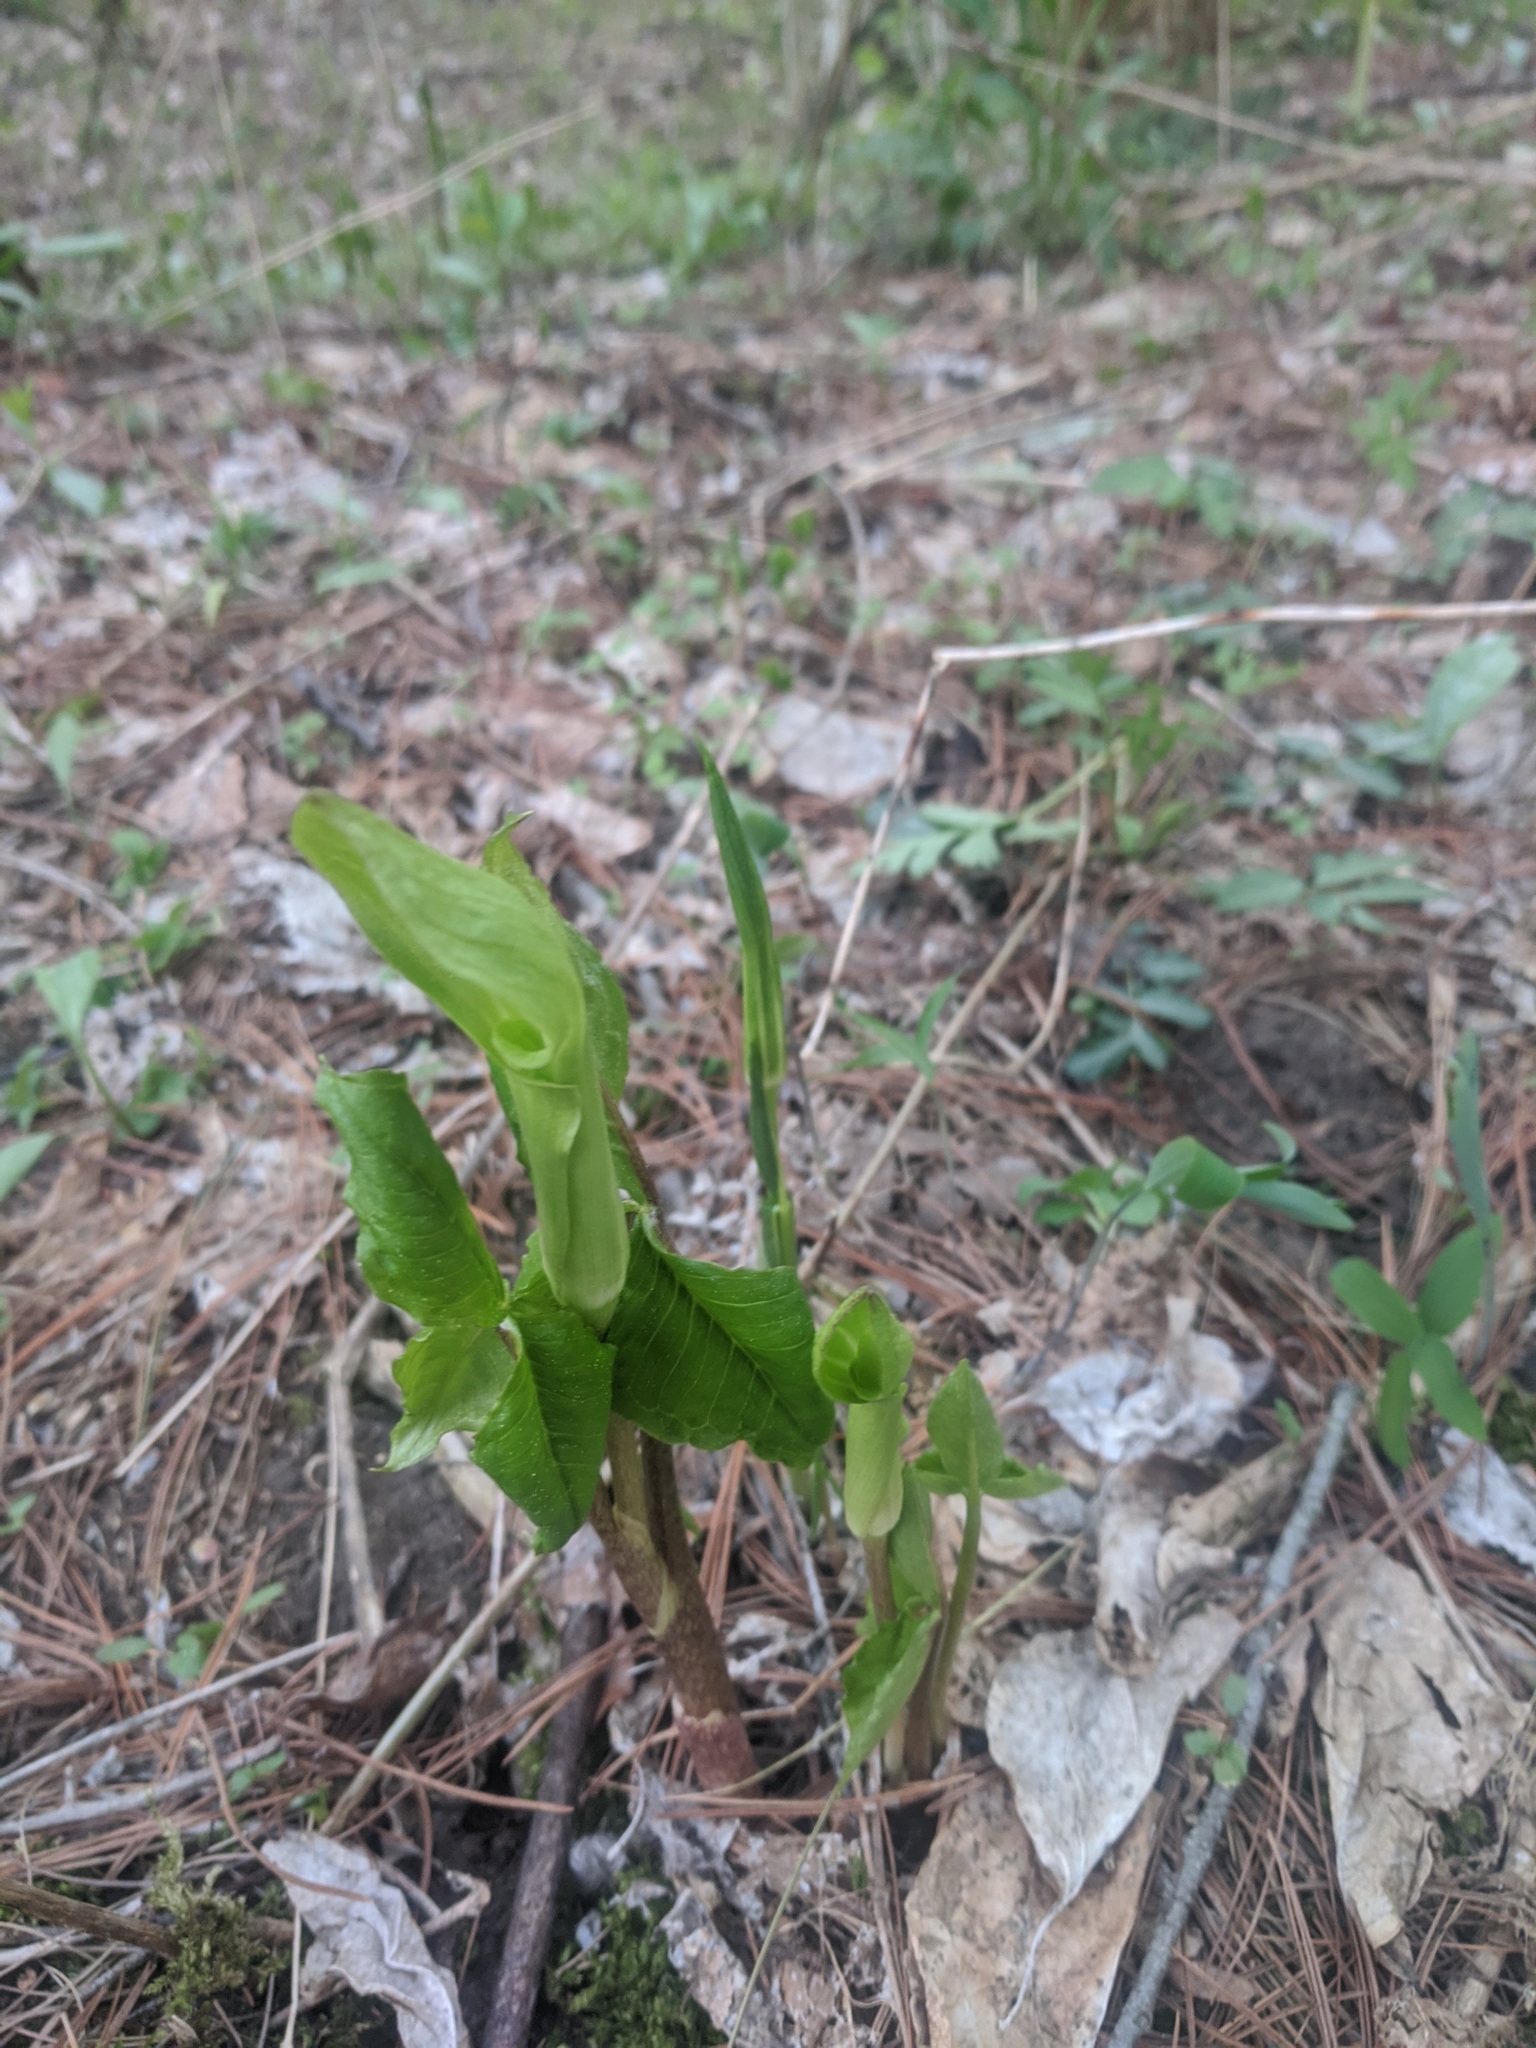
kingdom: Plantae
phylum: Tracheophyta
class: Liliopsida
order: Alismatales
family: Araceae
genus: Arisaema
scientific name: Arisaema triphyllum
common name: Jack-in-the-pulpit
